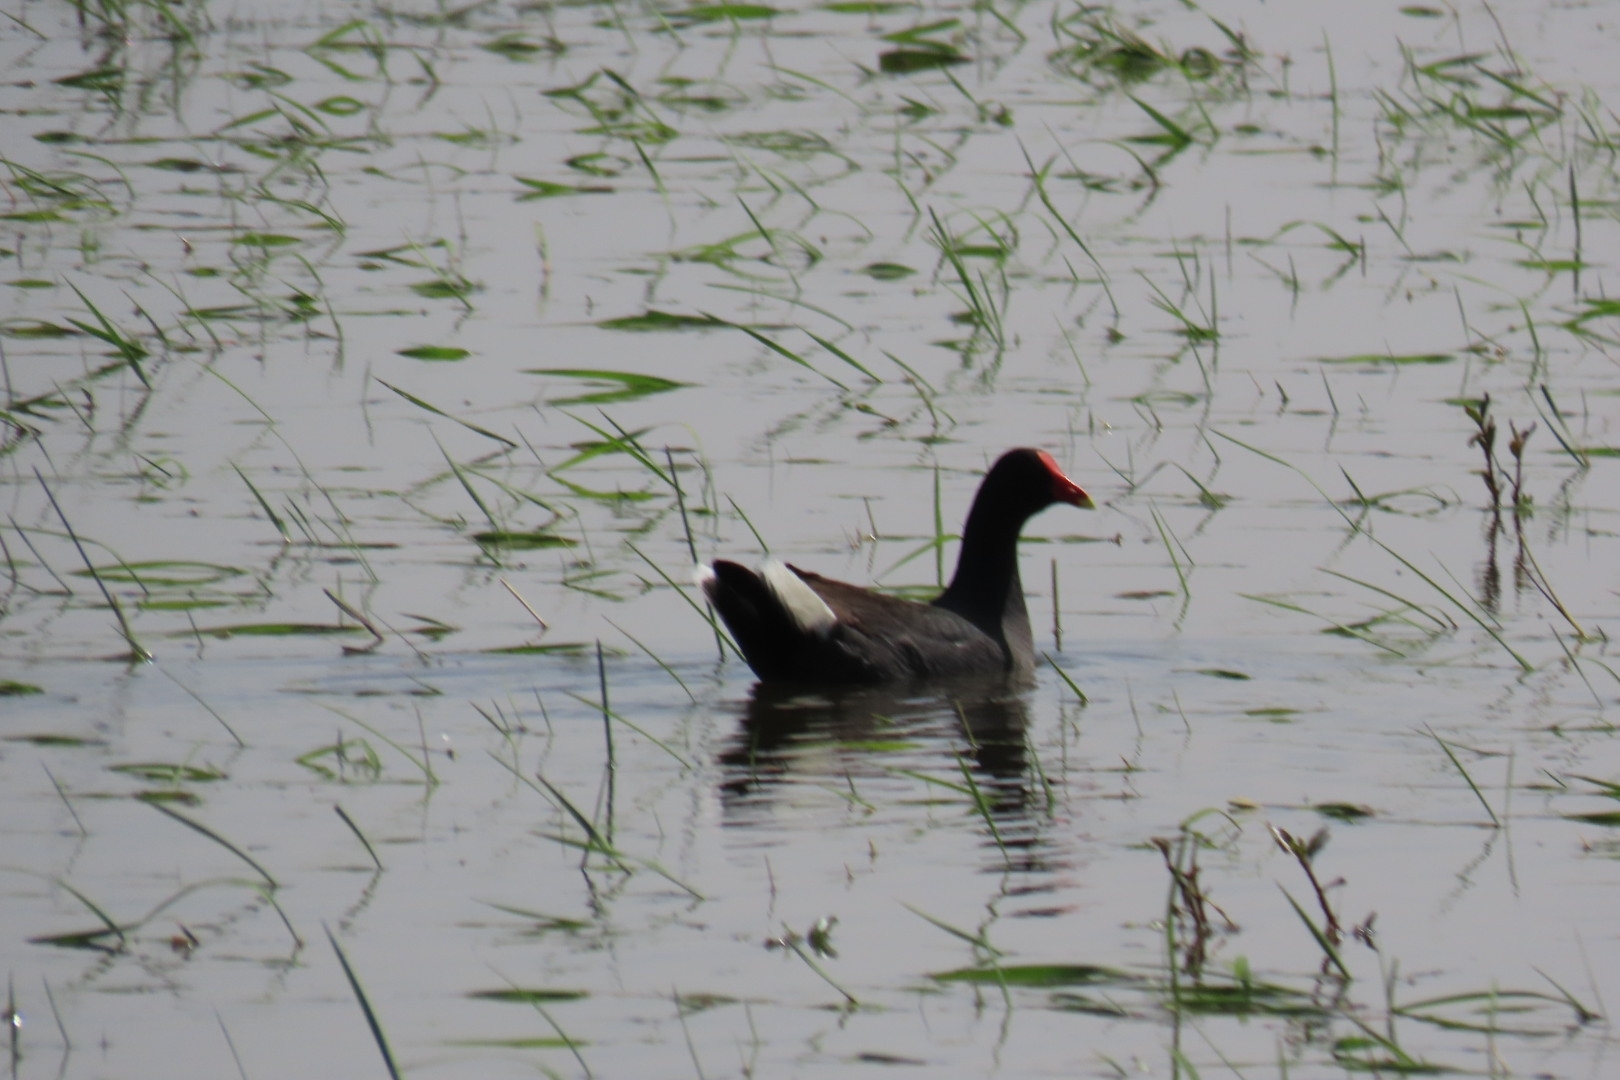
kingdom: Animalia
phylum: Chordata
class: Aves
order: Gruiformes
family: Rallidae
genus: Gallinula
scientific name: Gallinula chloropus
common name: Common moorhen
